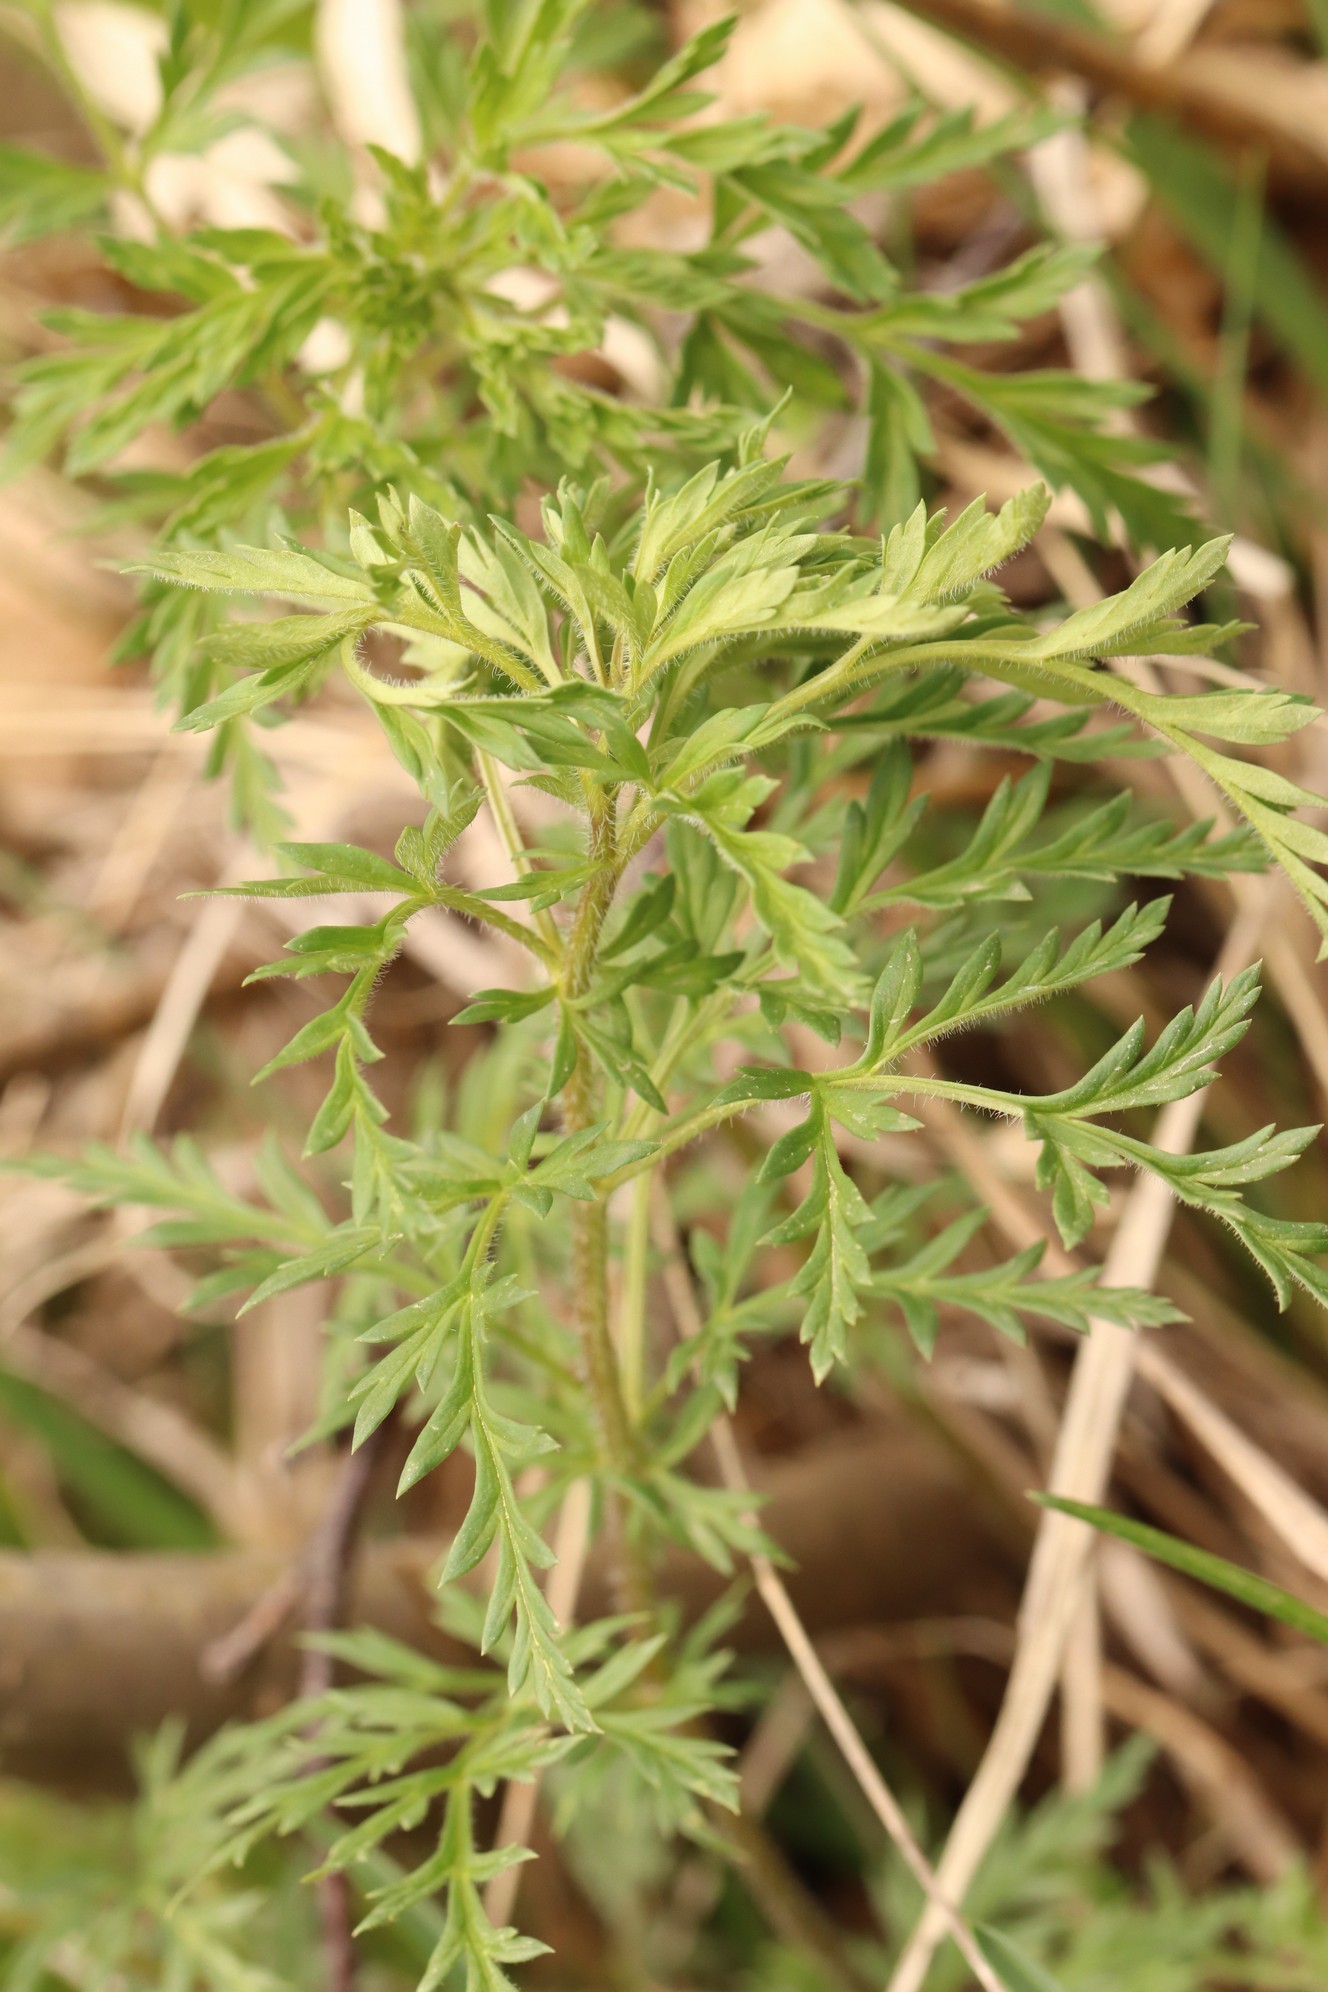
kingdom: Plantae
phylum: Tracheophyta
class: Magnoliopsida
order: Ranunculales
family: Ranunculaceae
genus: Adonis
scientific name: Adonis villosa
